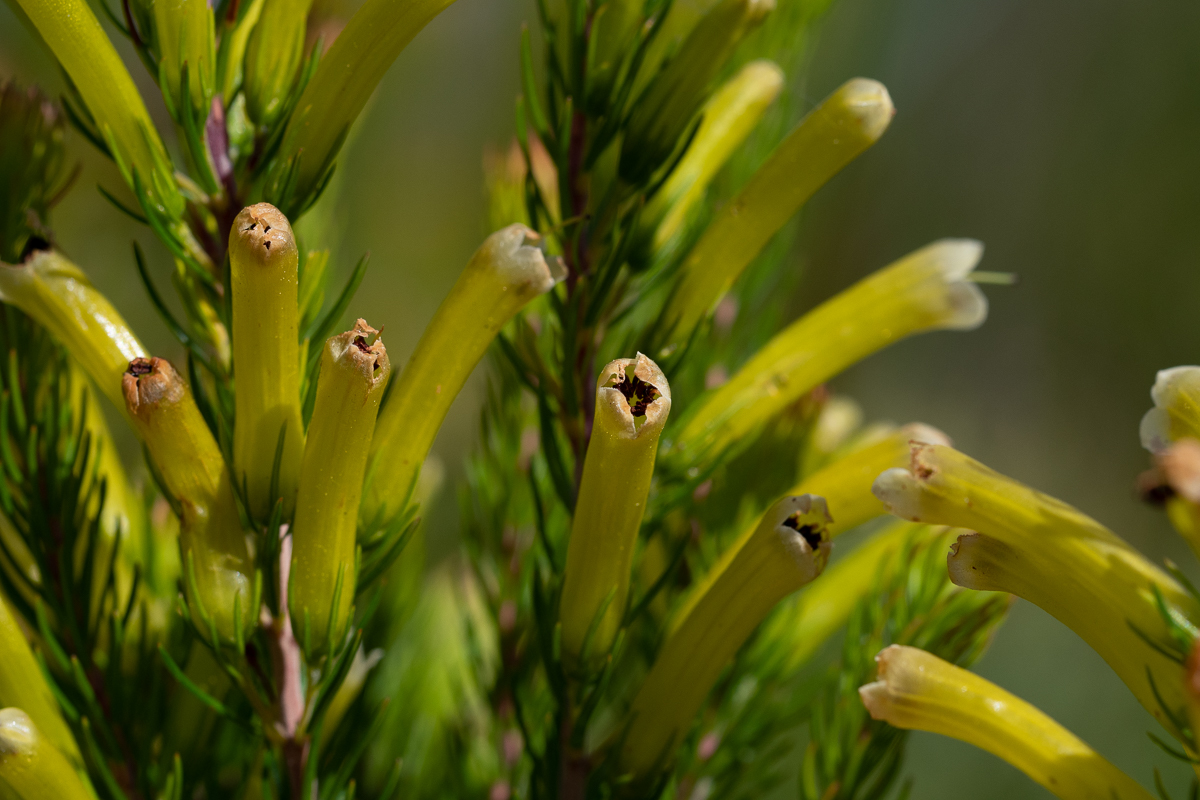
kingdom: Plantae
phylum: Tracheophyta
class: Magnoliopsida
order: Ericales
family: Ericaceae
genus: Erica
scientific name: Erica pinea
